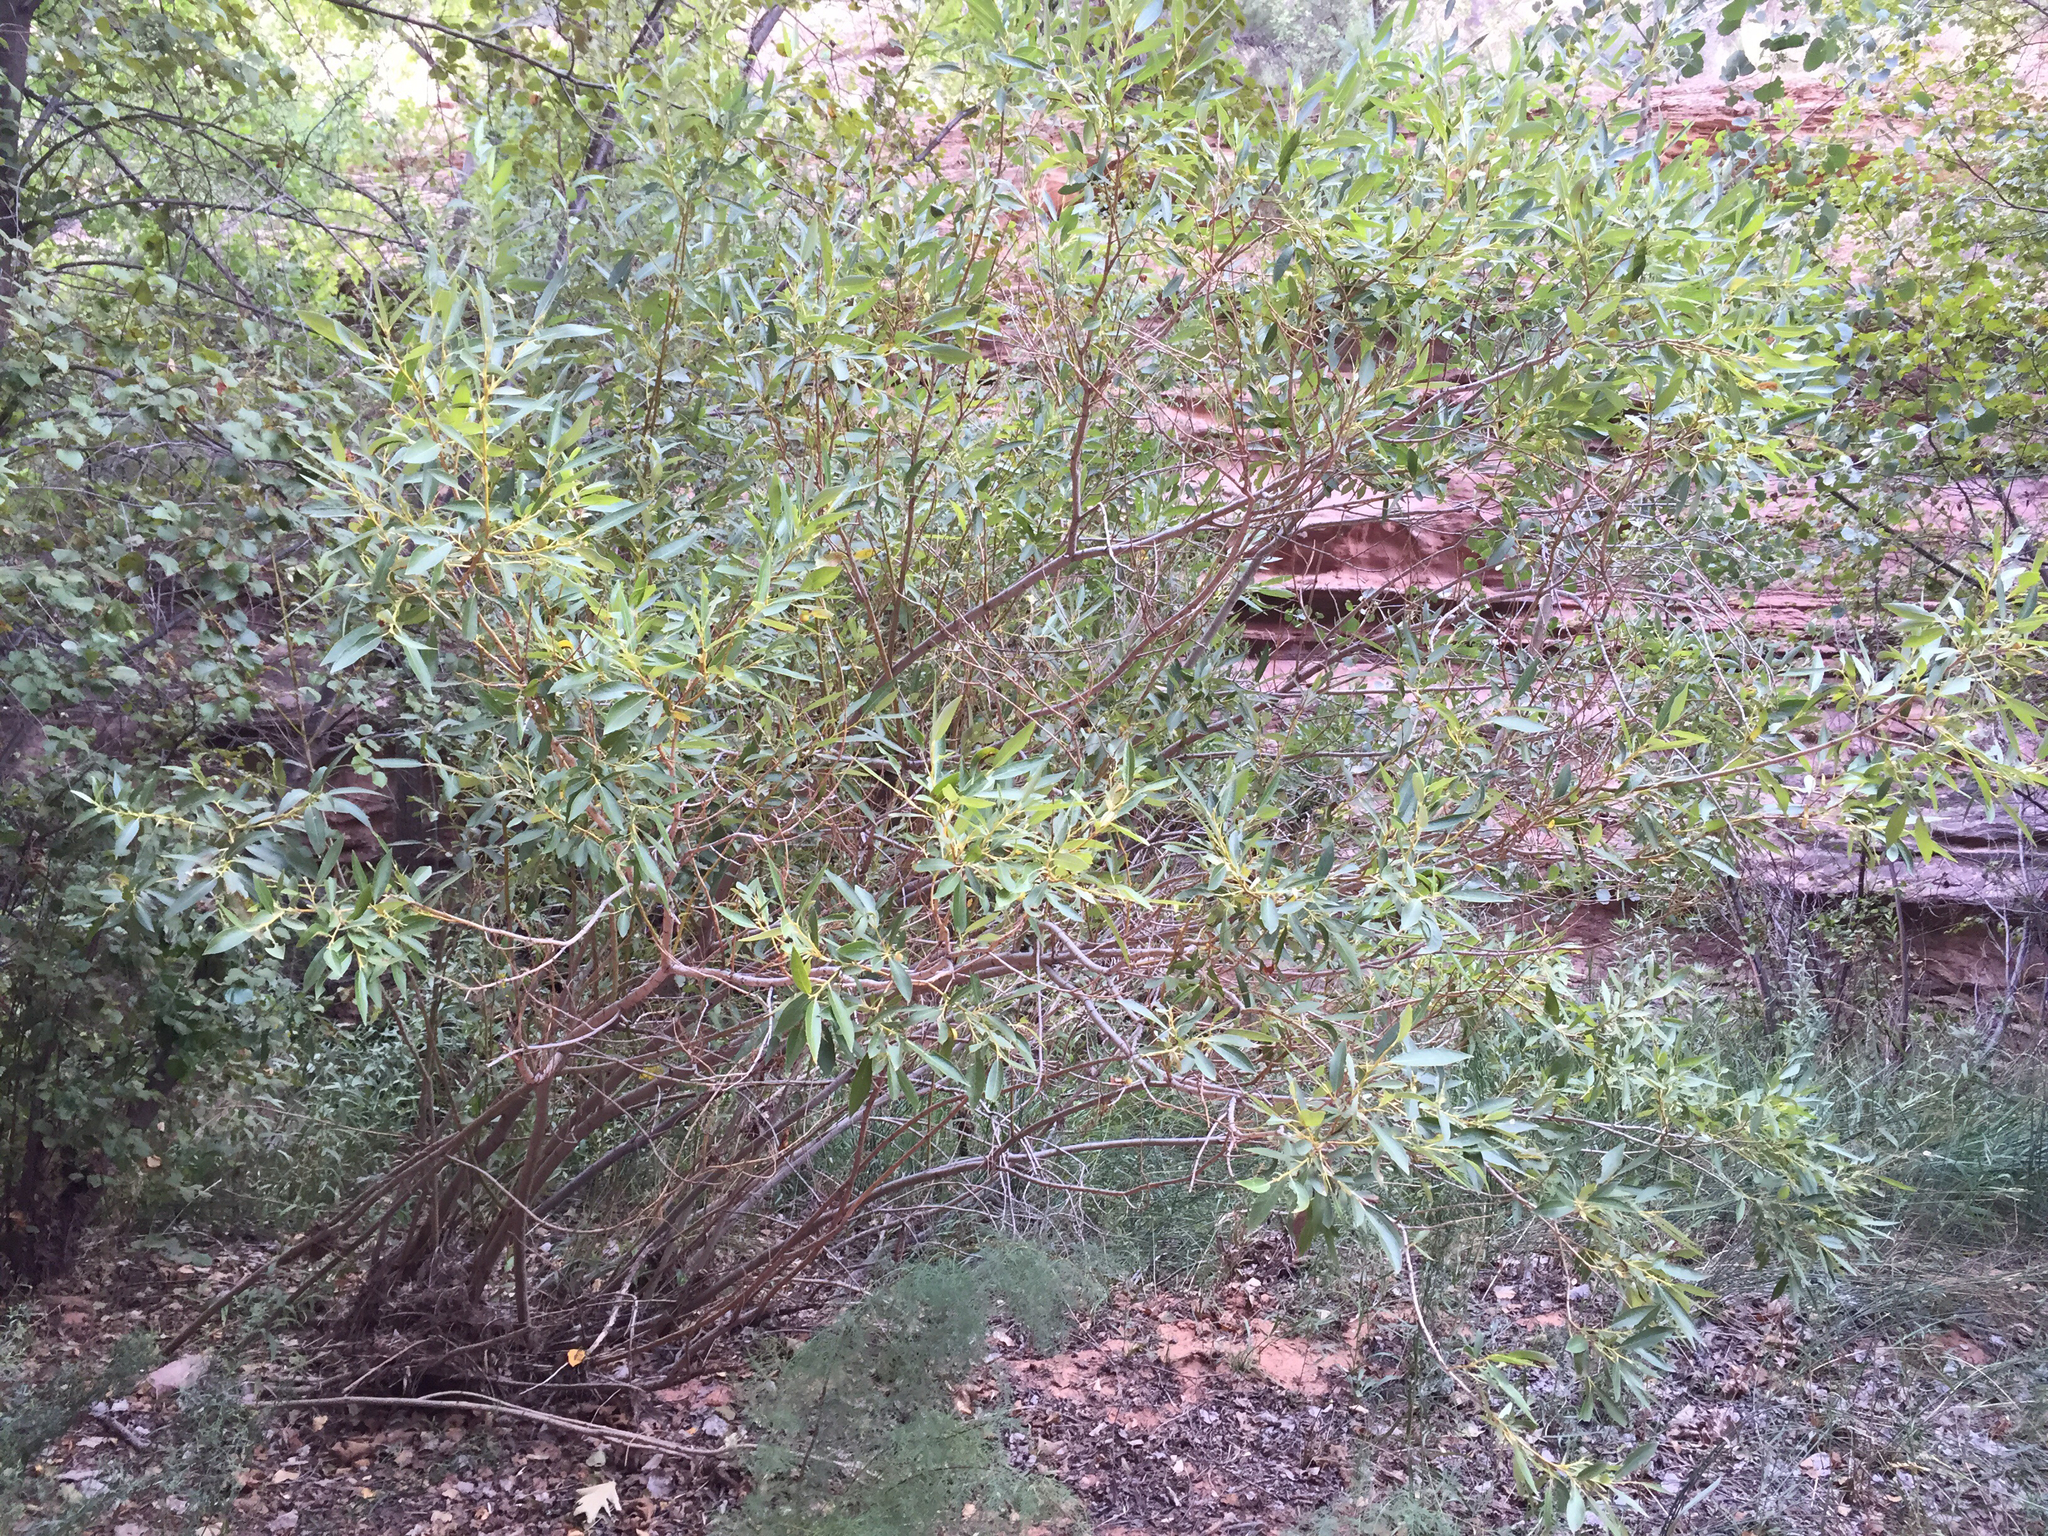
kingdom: Plantae
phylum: Tracheophyta
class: Magnoliopsida
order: Malpighiales
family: Salicaceae
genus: Populus
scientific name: Populus angustifolia
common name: Willow cottonwood
